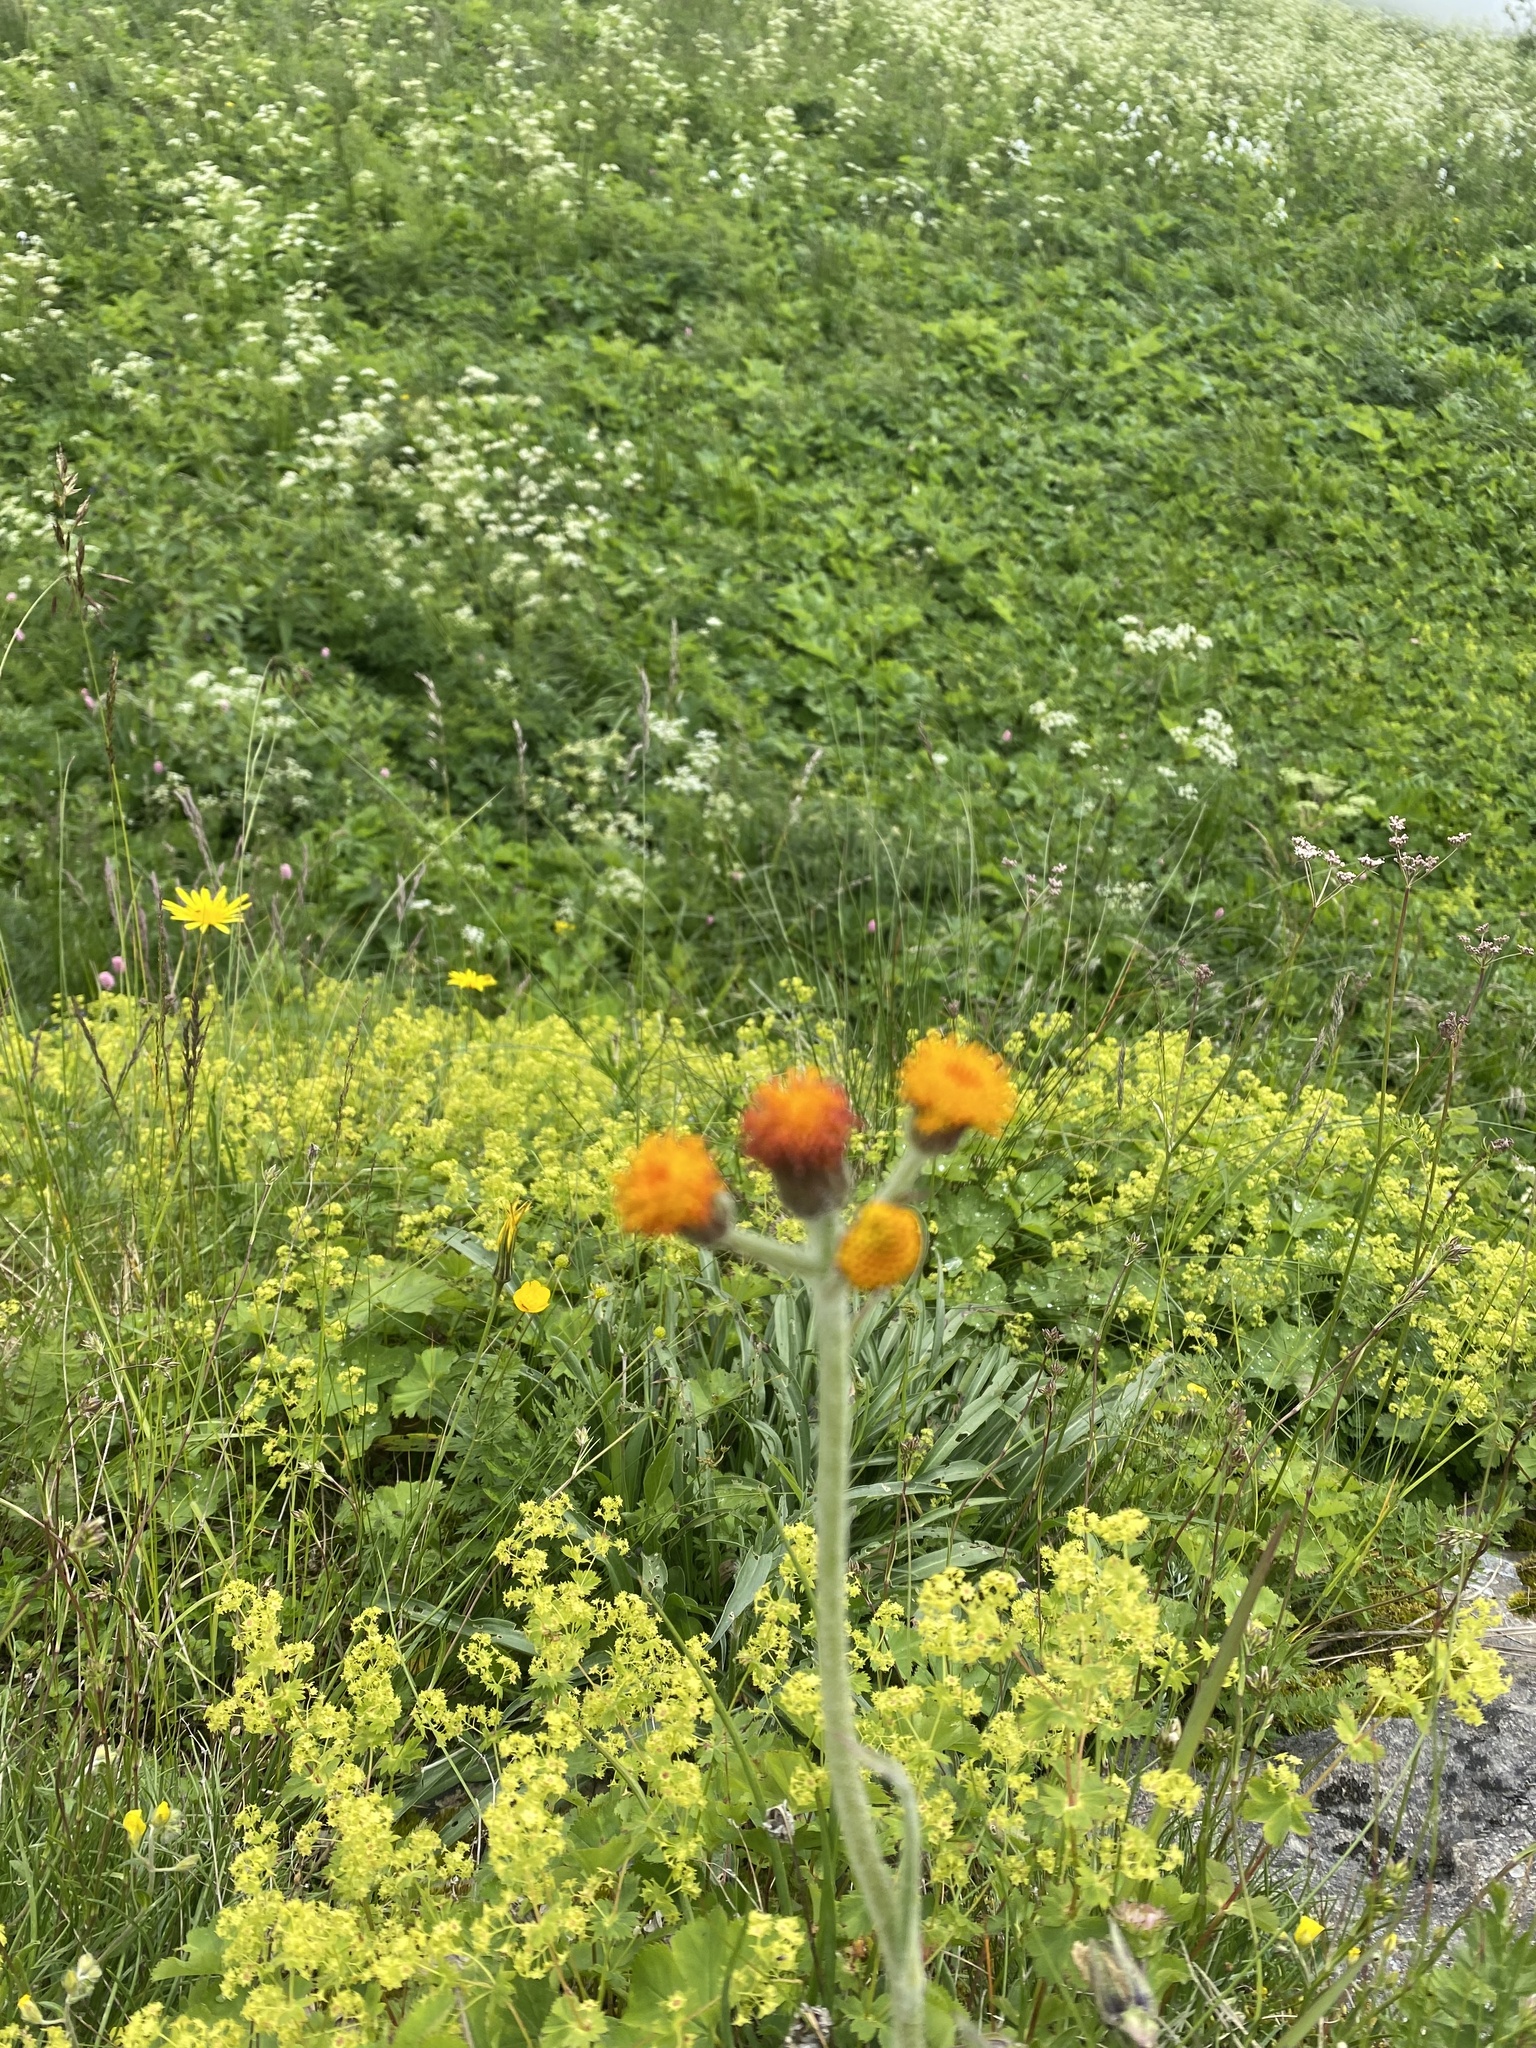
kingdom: Plantae
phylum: Tracheophyta
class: Magnoliopsida
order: Asterales
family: Asteraceae
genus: Tephroseris
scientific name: Tephroseris integrifolia
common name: Field fleawort
